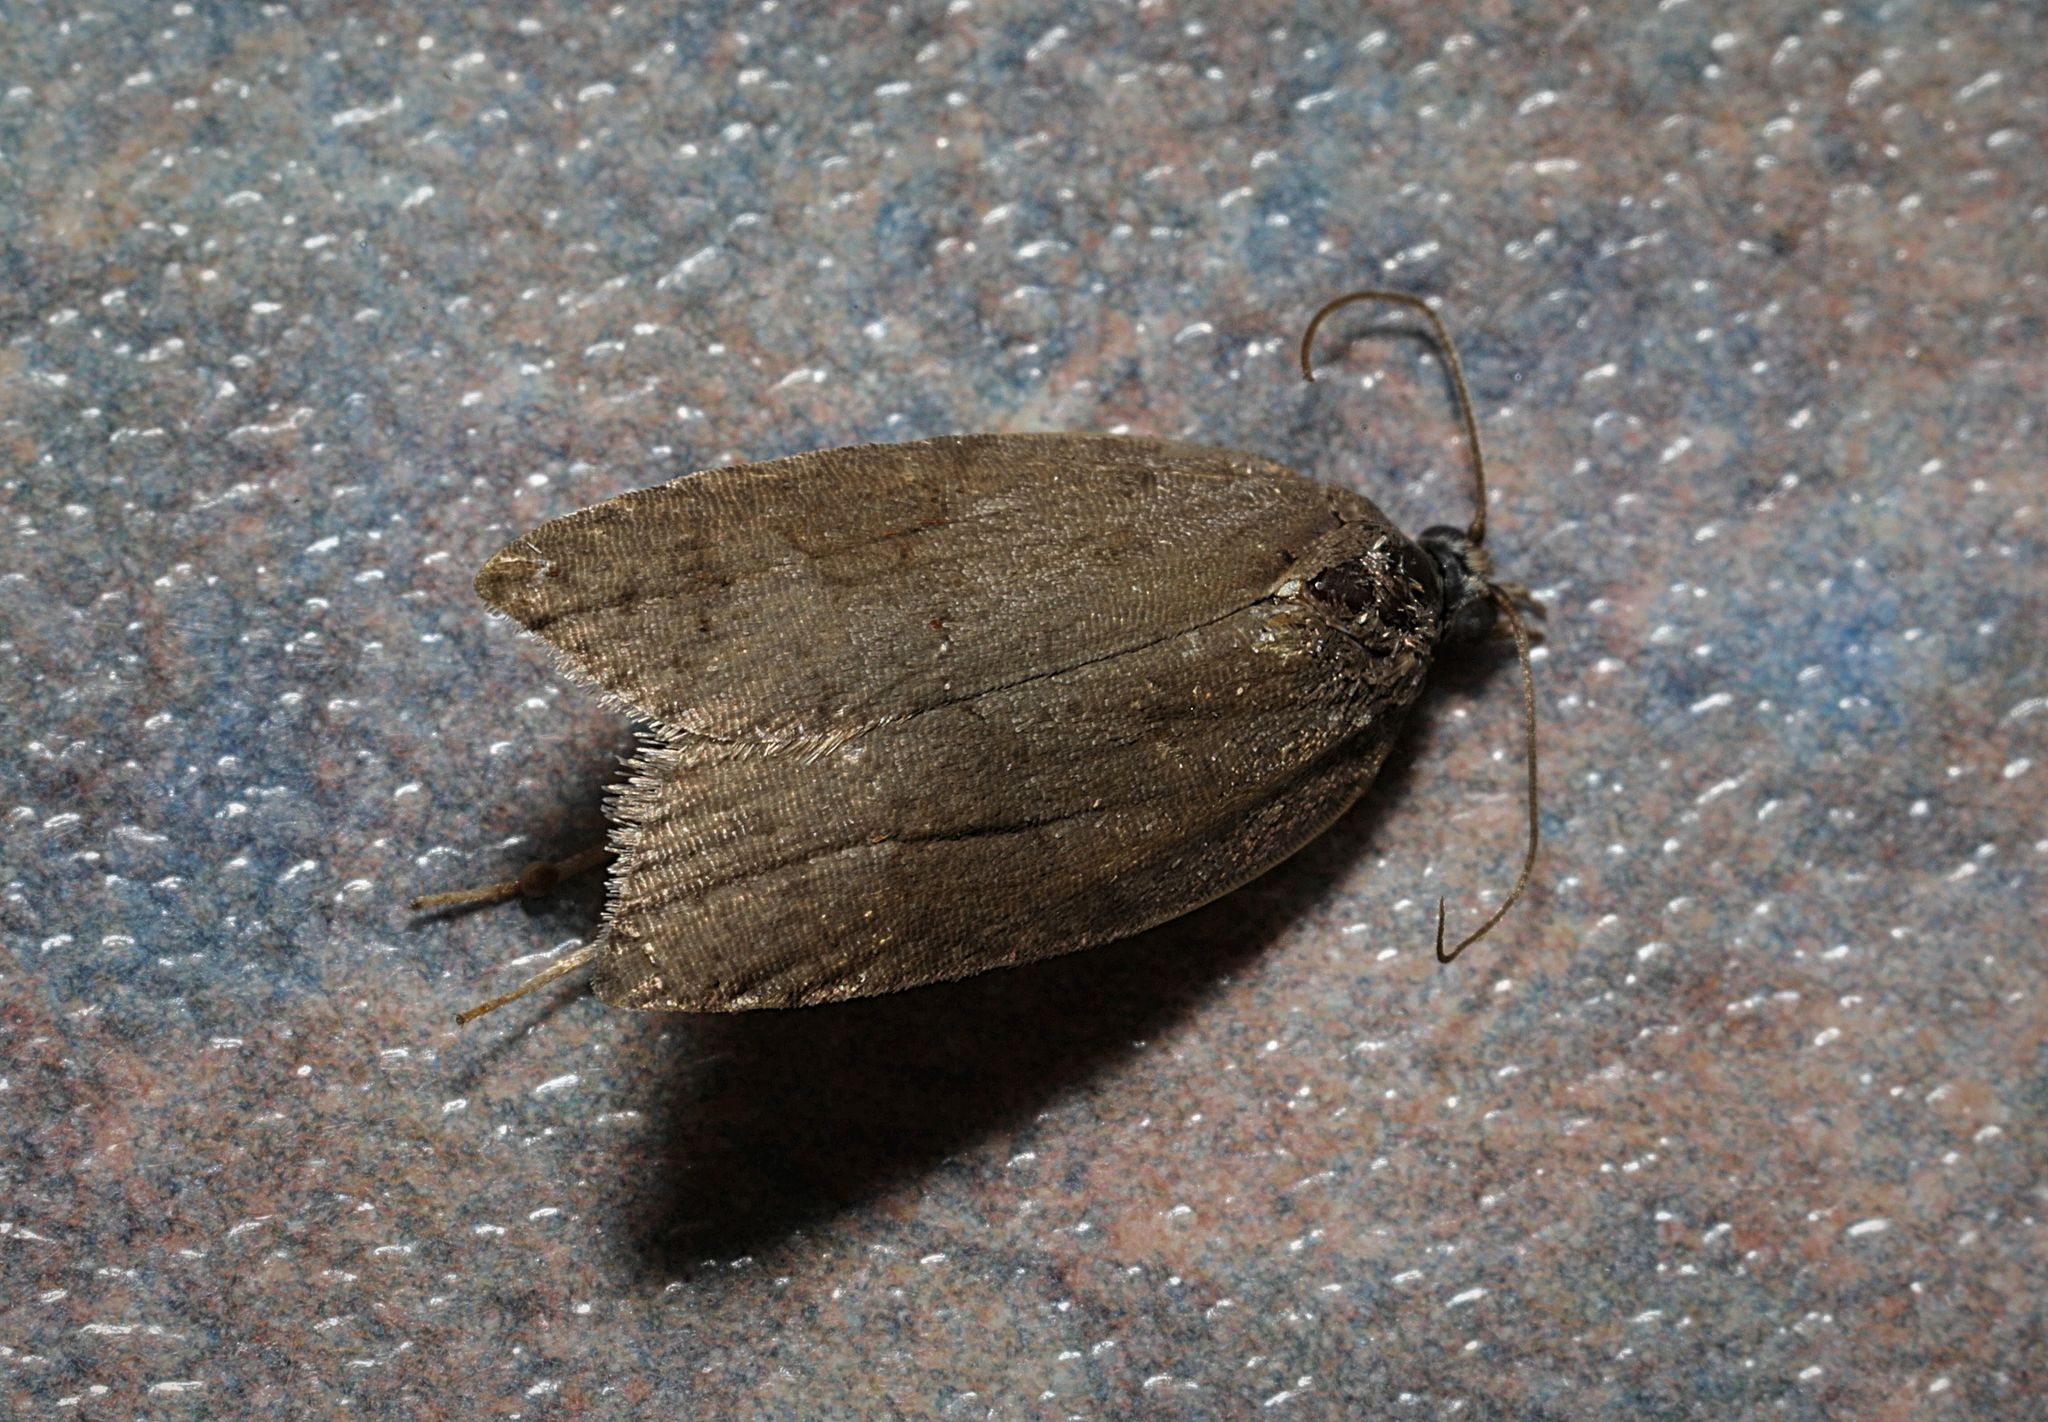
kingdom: Animalia
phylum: Arthropoda
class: Insecta
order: Lepidoptera
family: Tortricidae
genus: Acleris
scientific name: Acleris sparsana
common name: Ashy button
